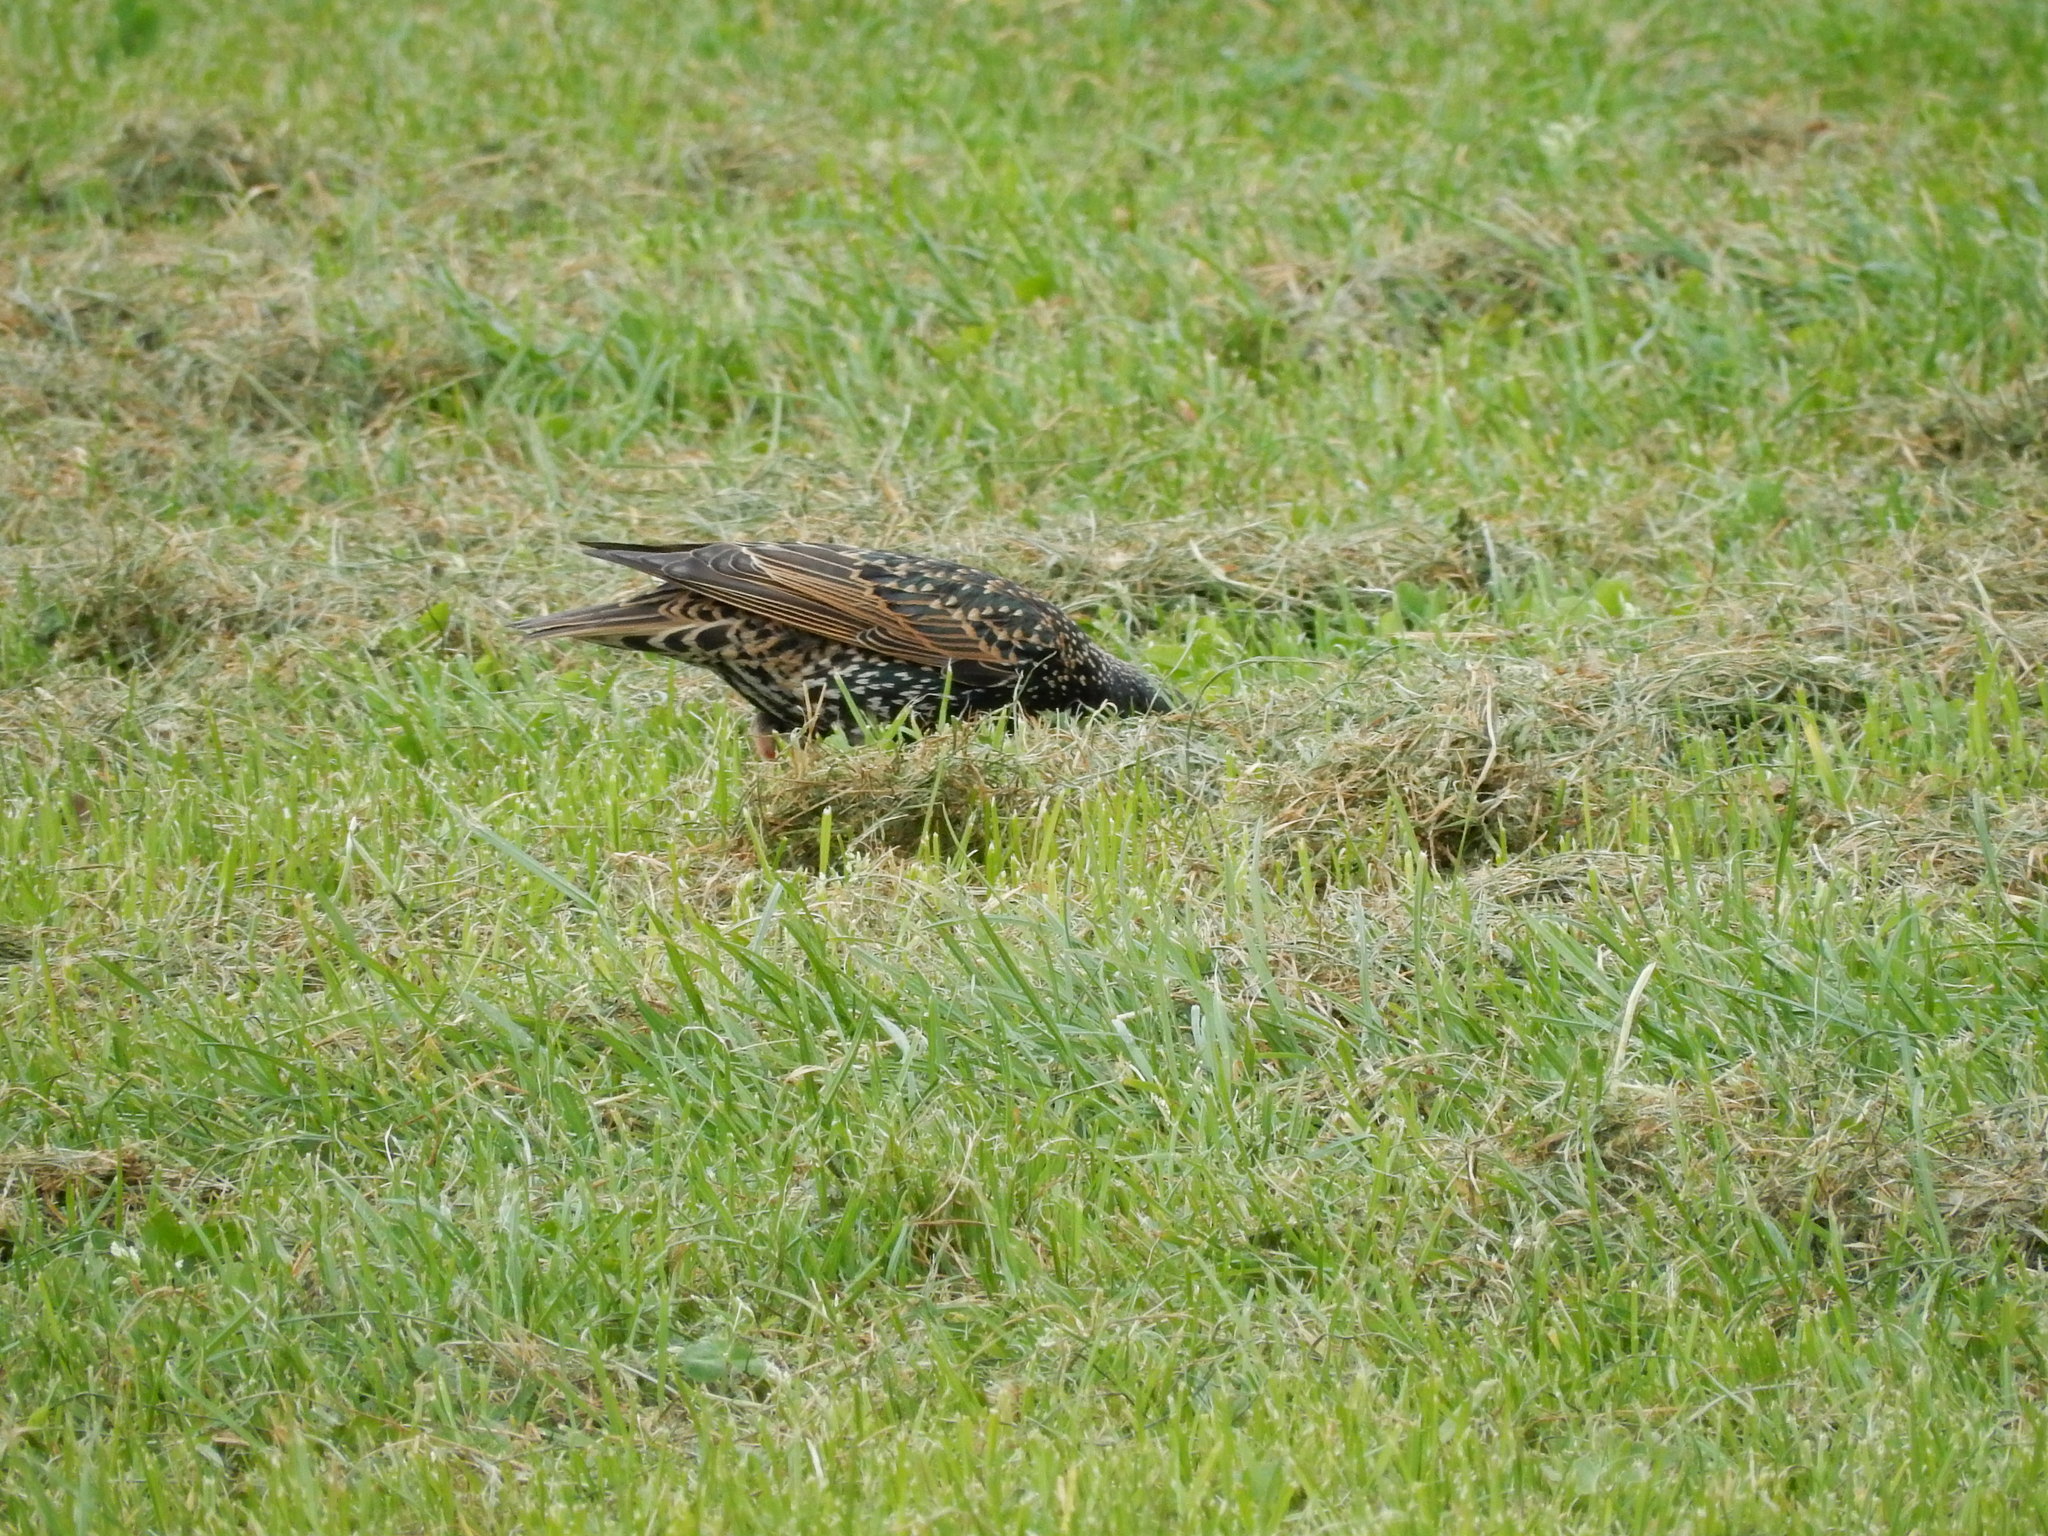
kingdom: Animalia
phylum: Chordata
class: Aves
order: Passeriformes
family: Sturnidae
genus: Sturnus
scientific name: Sturnus vulgaris
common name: Common starling
